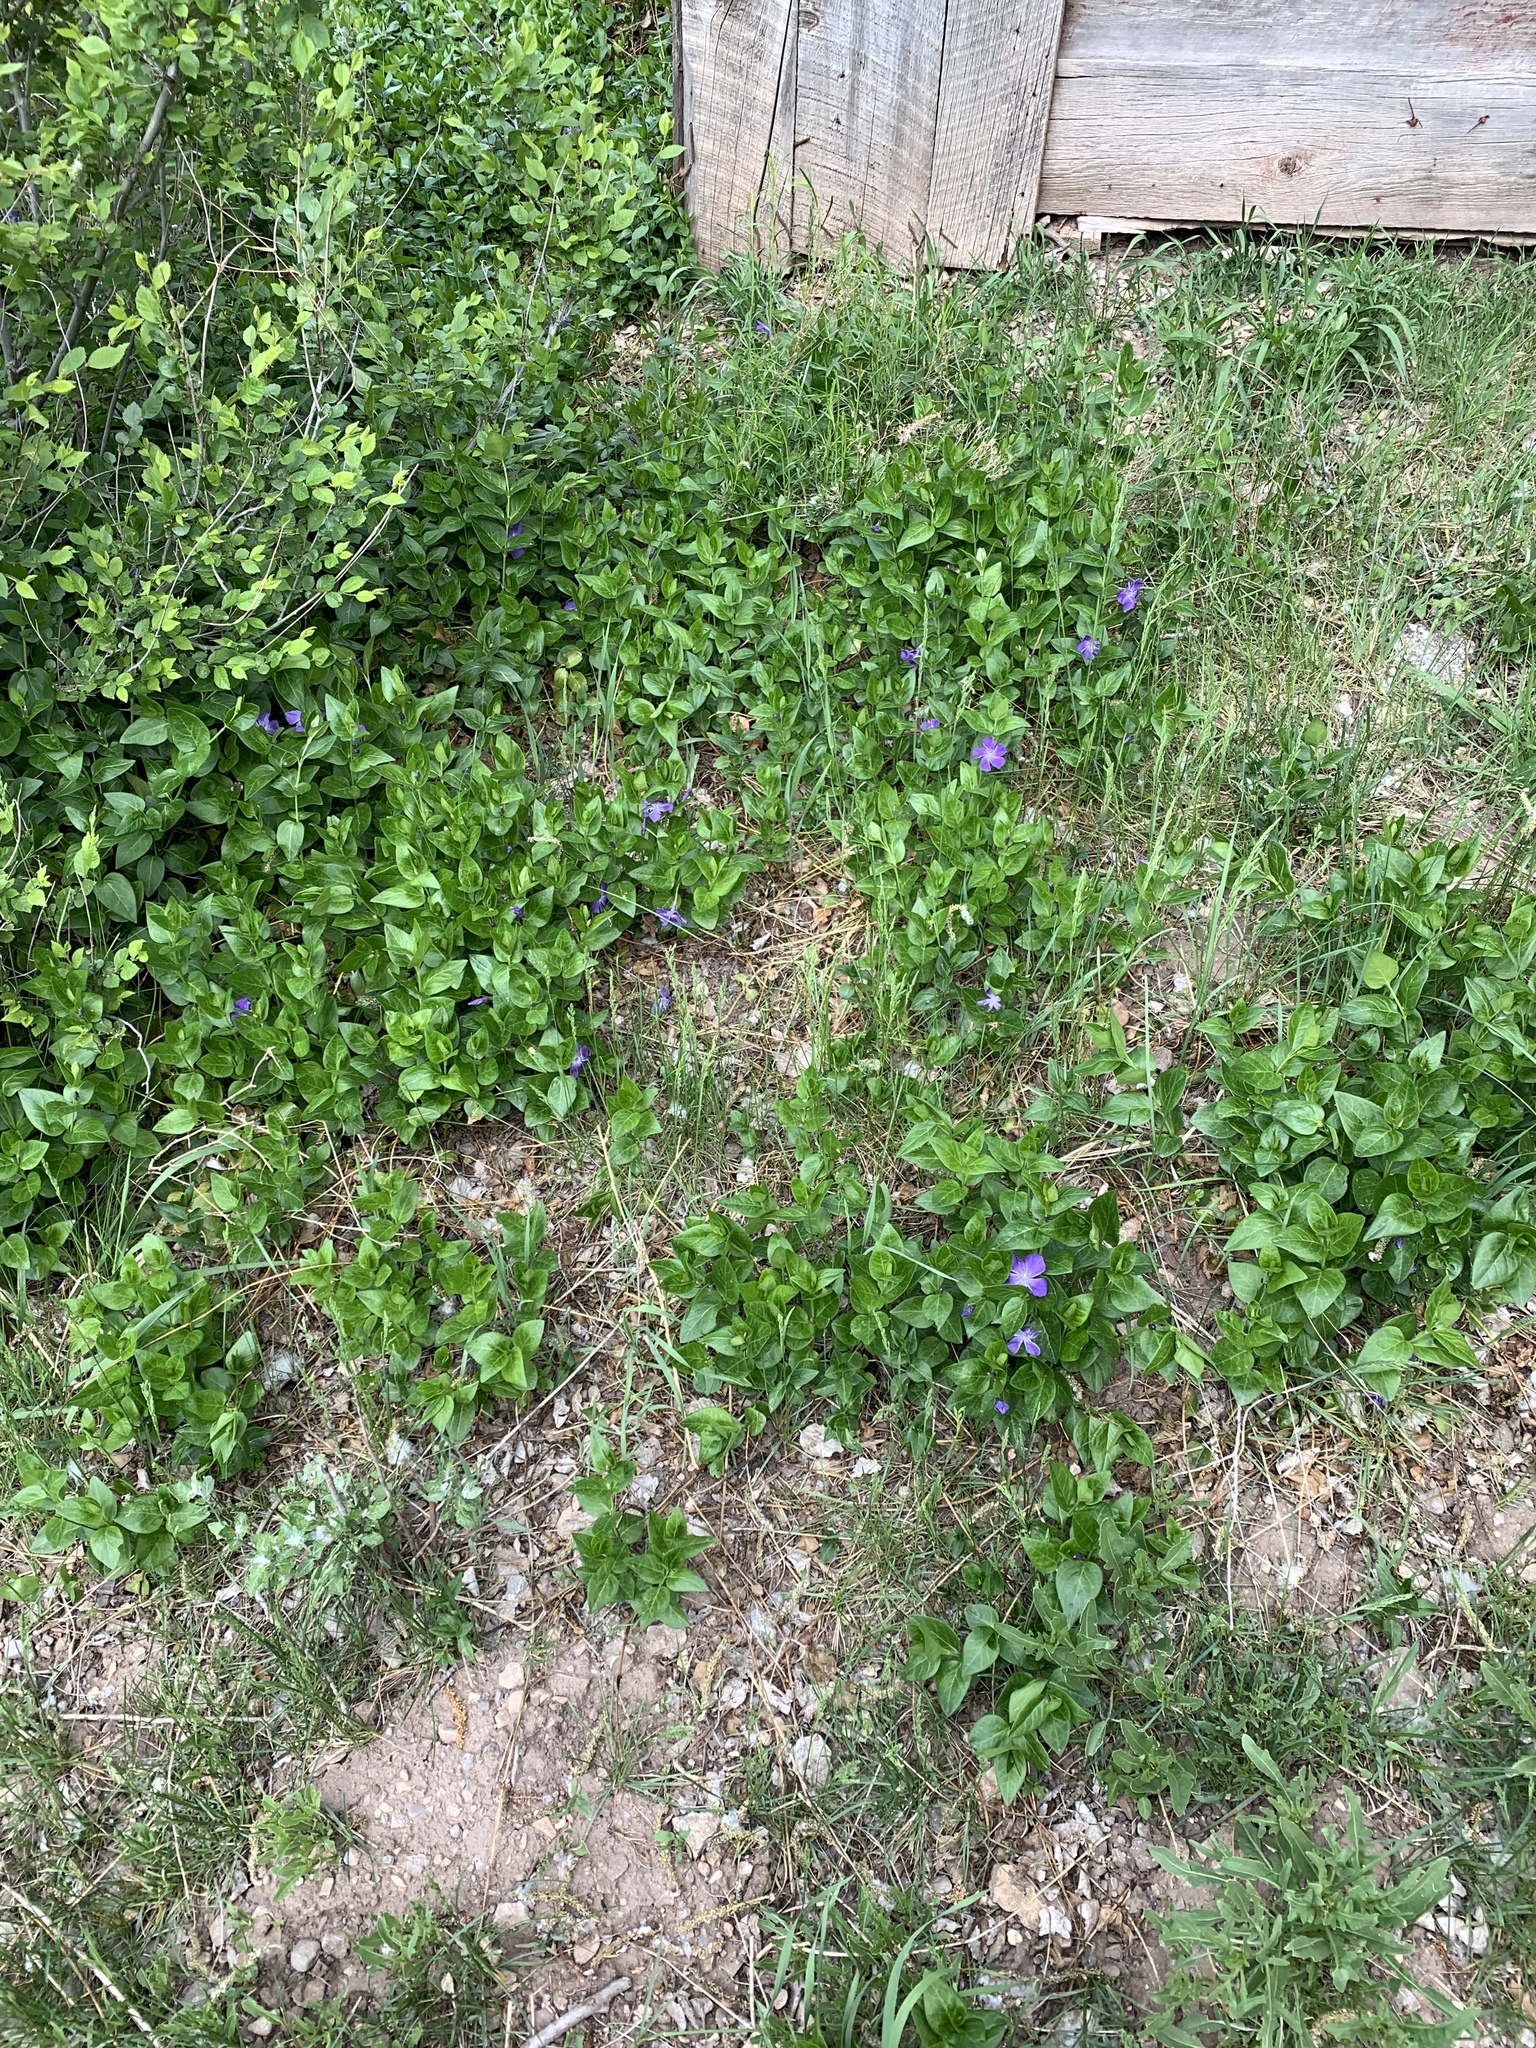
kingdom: Plantae
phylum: Tracheophyta
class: Magnoliopsida
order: Gentianales
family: Apocynaceae
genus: Vinca
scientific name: Vinca major
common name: Greater periwinkle
